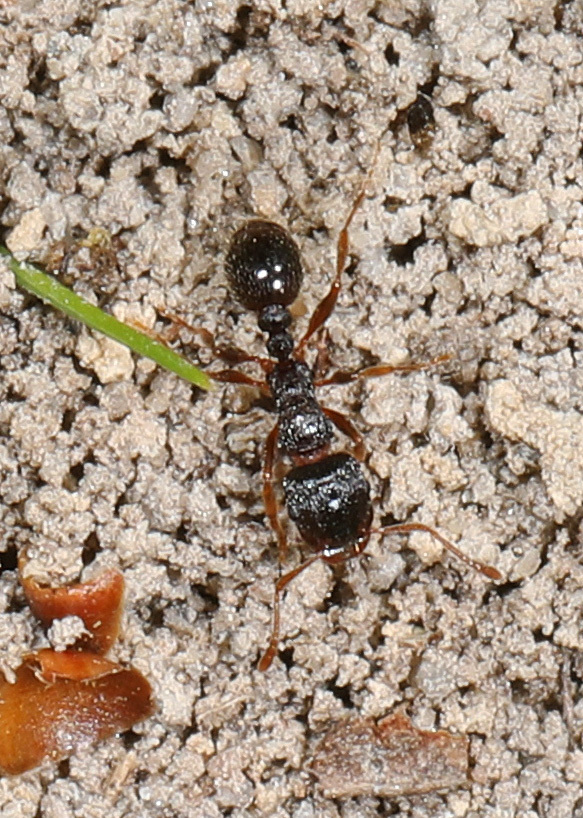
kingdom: Animalia
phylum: Arthropoda
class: Insecta
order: Hymenoptera
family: Formicidae
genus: Tetramorium
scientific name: Tetramorium immigrans
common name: Pavement ant
